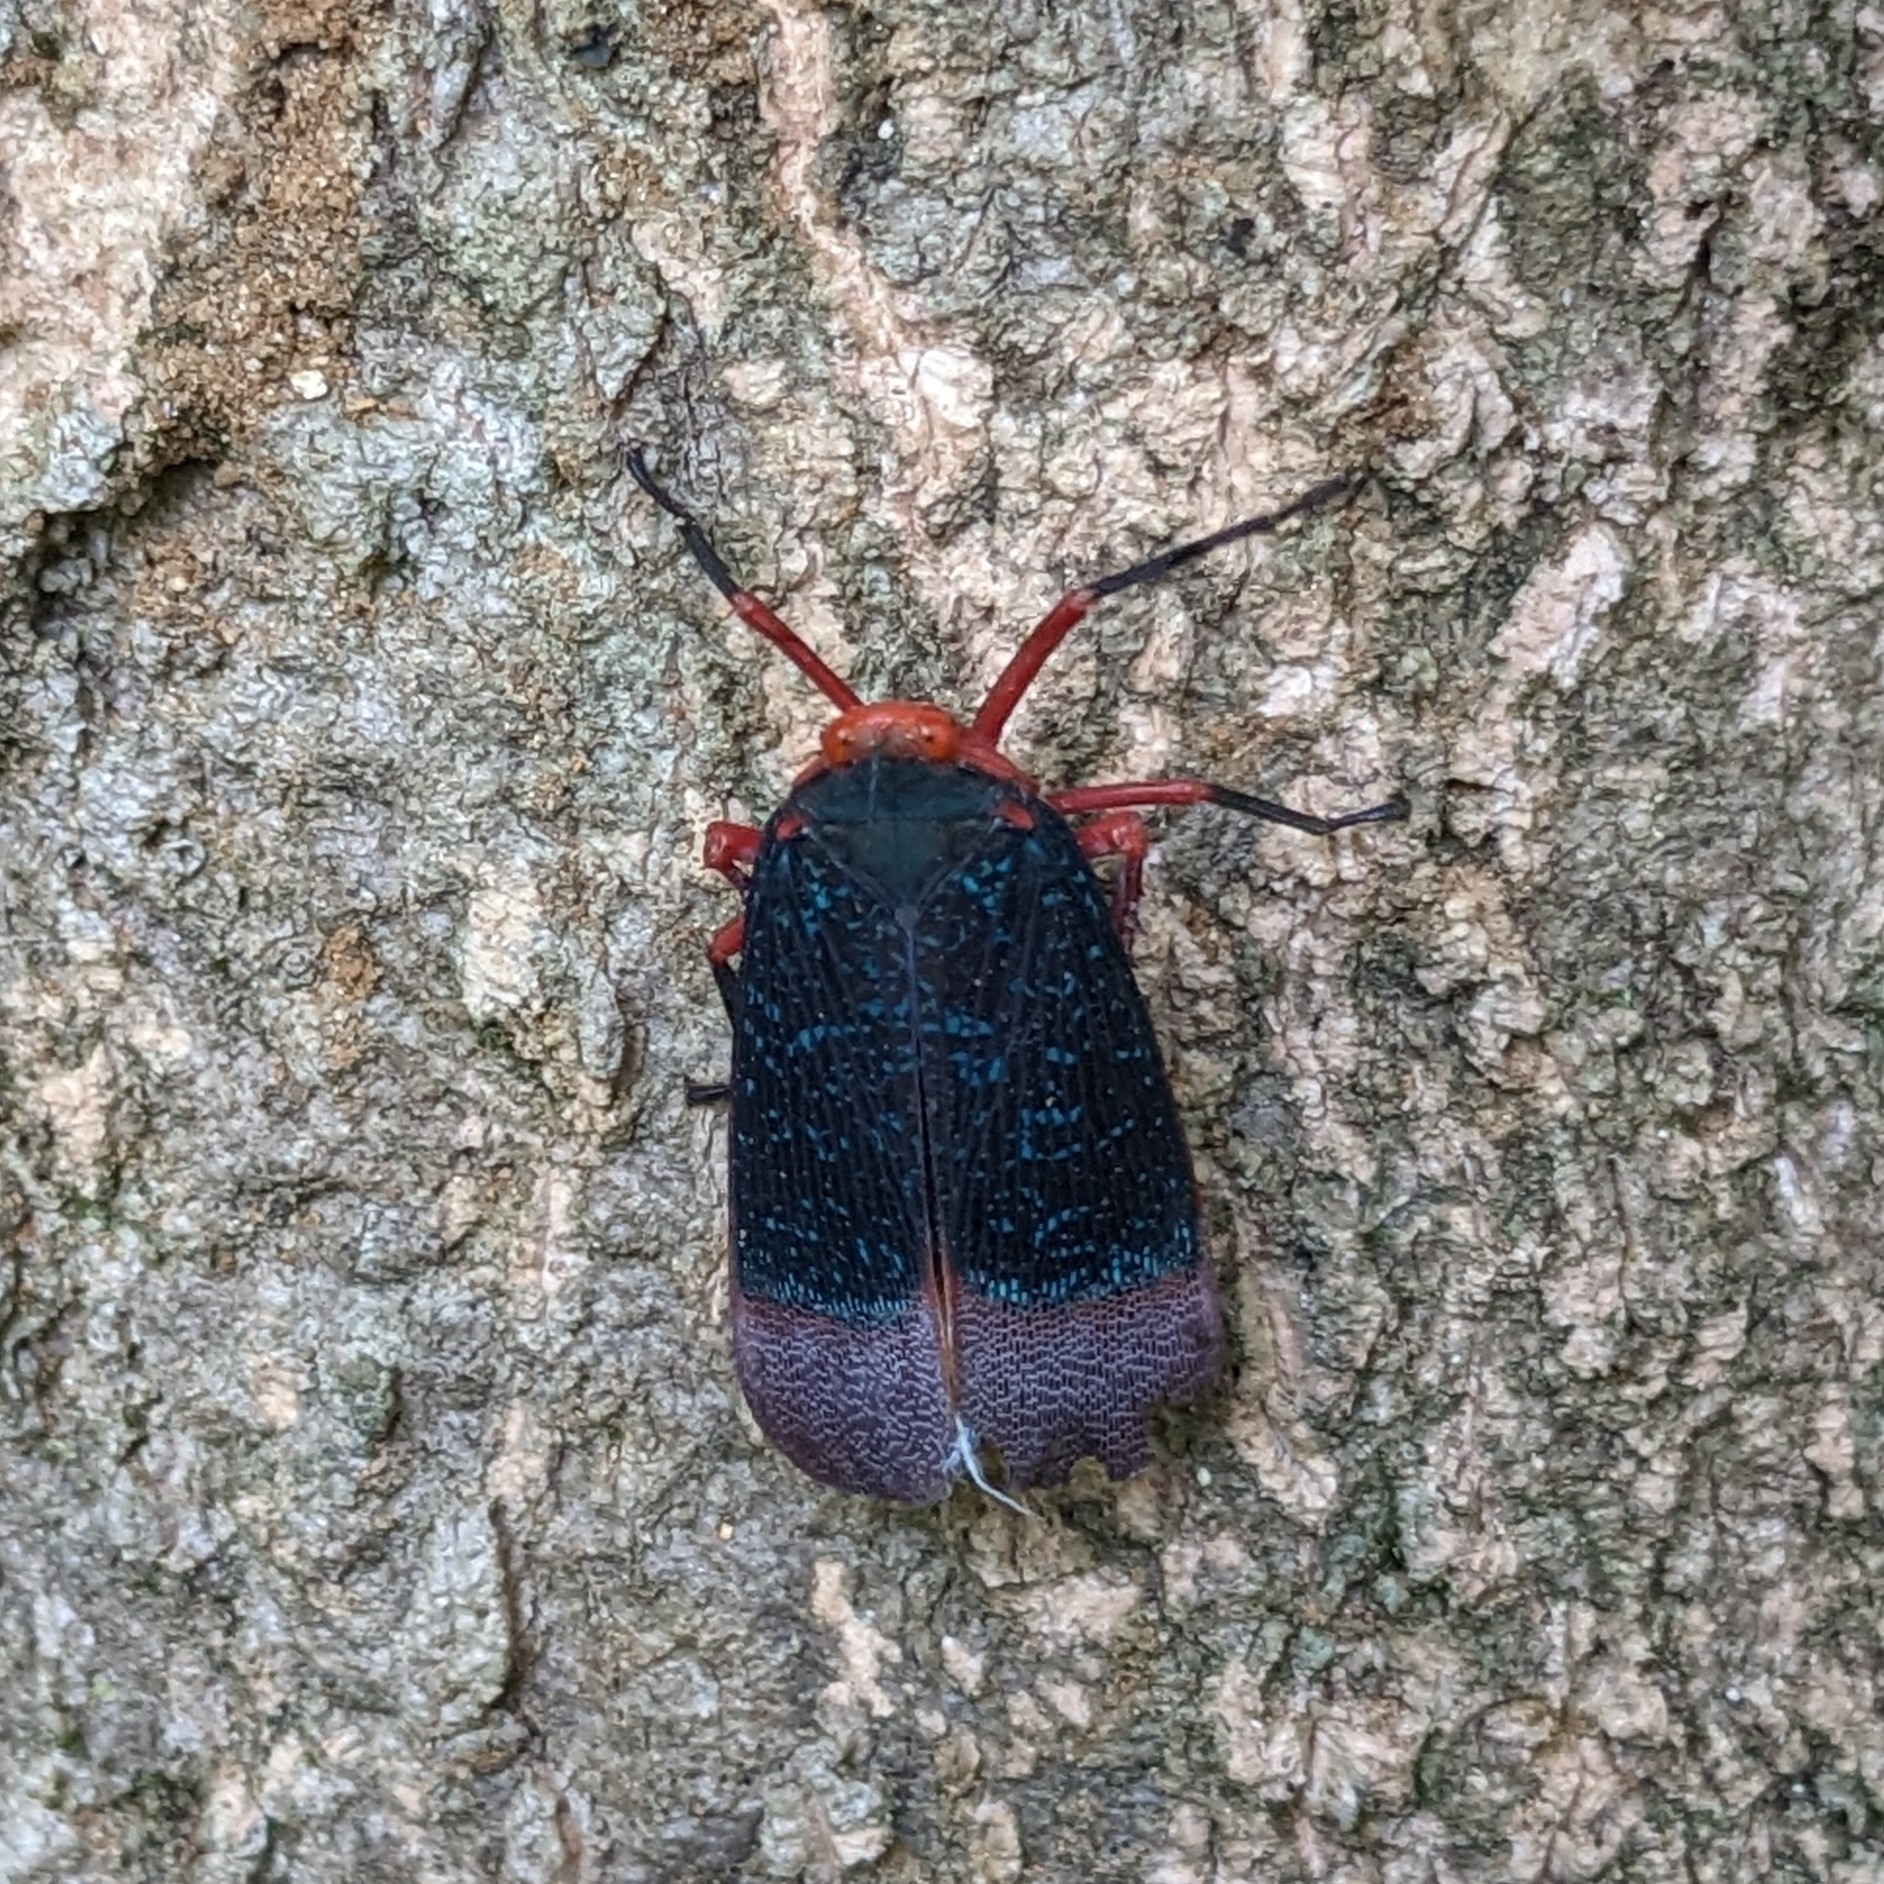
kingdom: Animalia
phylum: Arthropoda
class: Insecta
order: Hemiptera
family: Fulgoridae
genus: Kalidasa
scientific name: Kalidasa lanata
